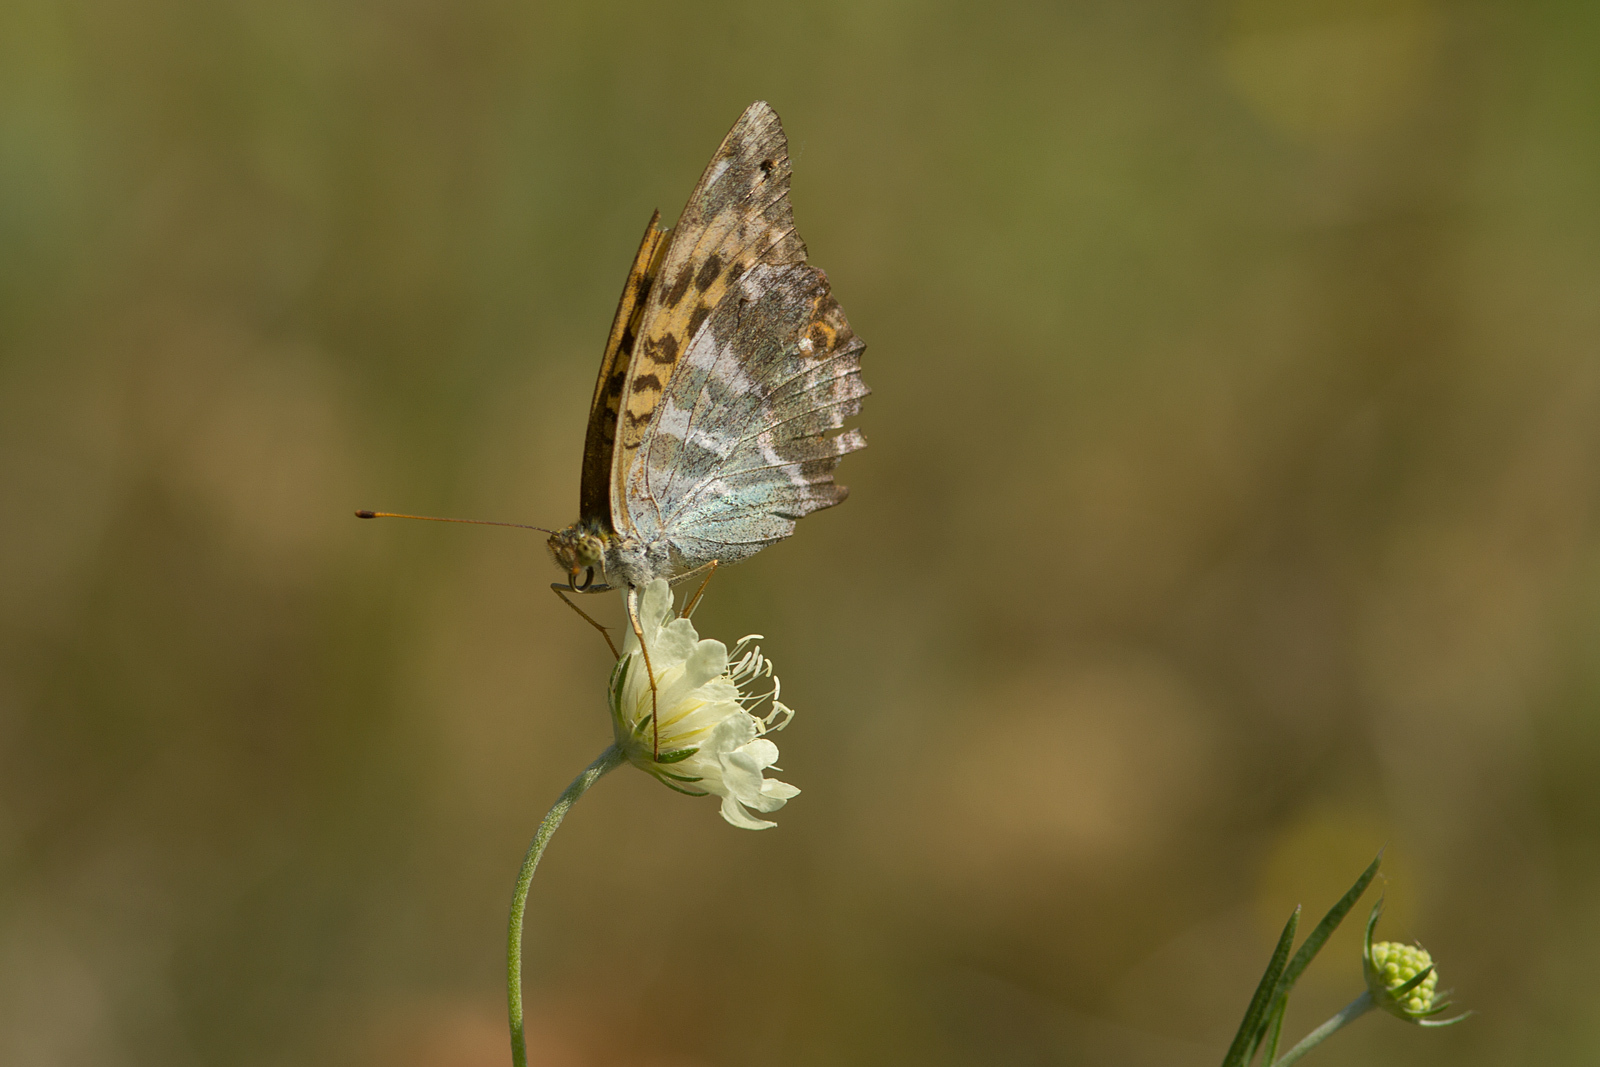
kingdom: Animalia
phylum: Arthropoda
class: Insecta
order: Lepidoptera
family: Nymphalidae
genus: Argynnis
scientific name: Argynnis paphia
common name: Silver-washed fritillary
